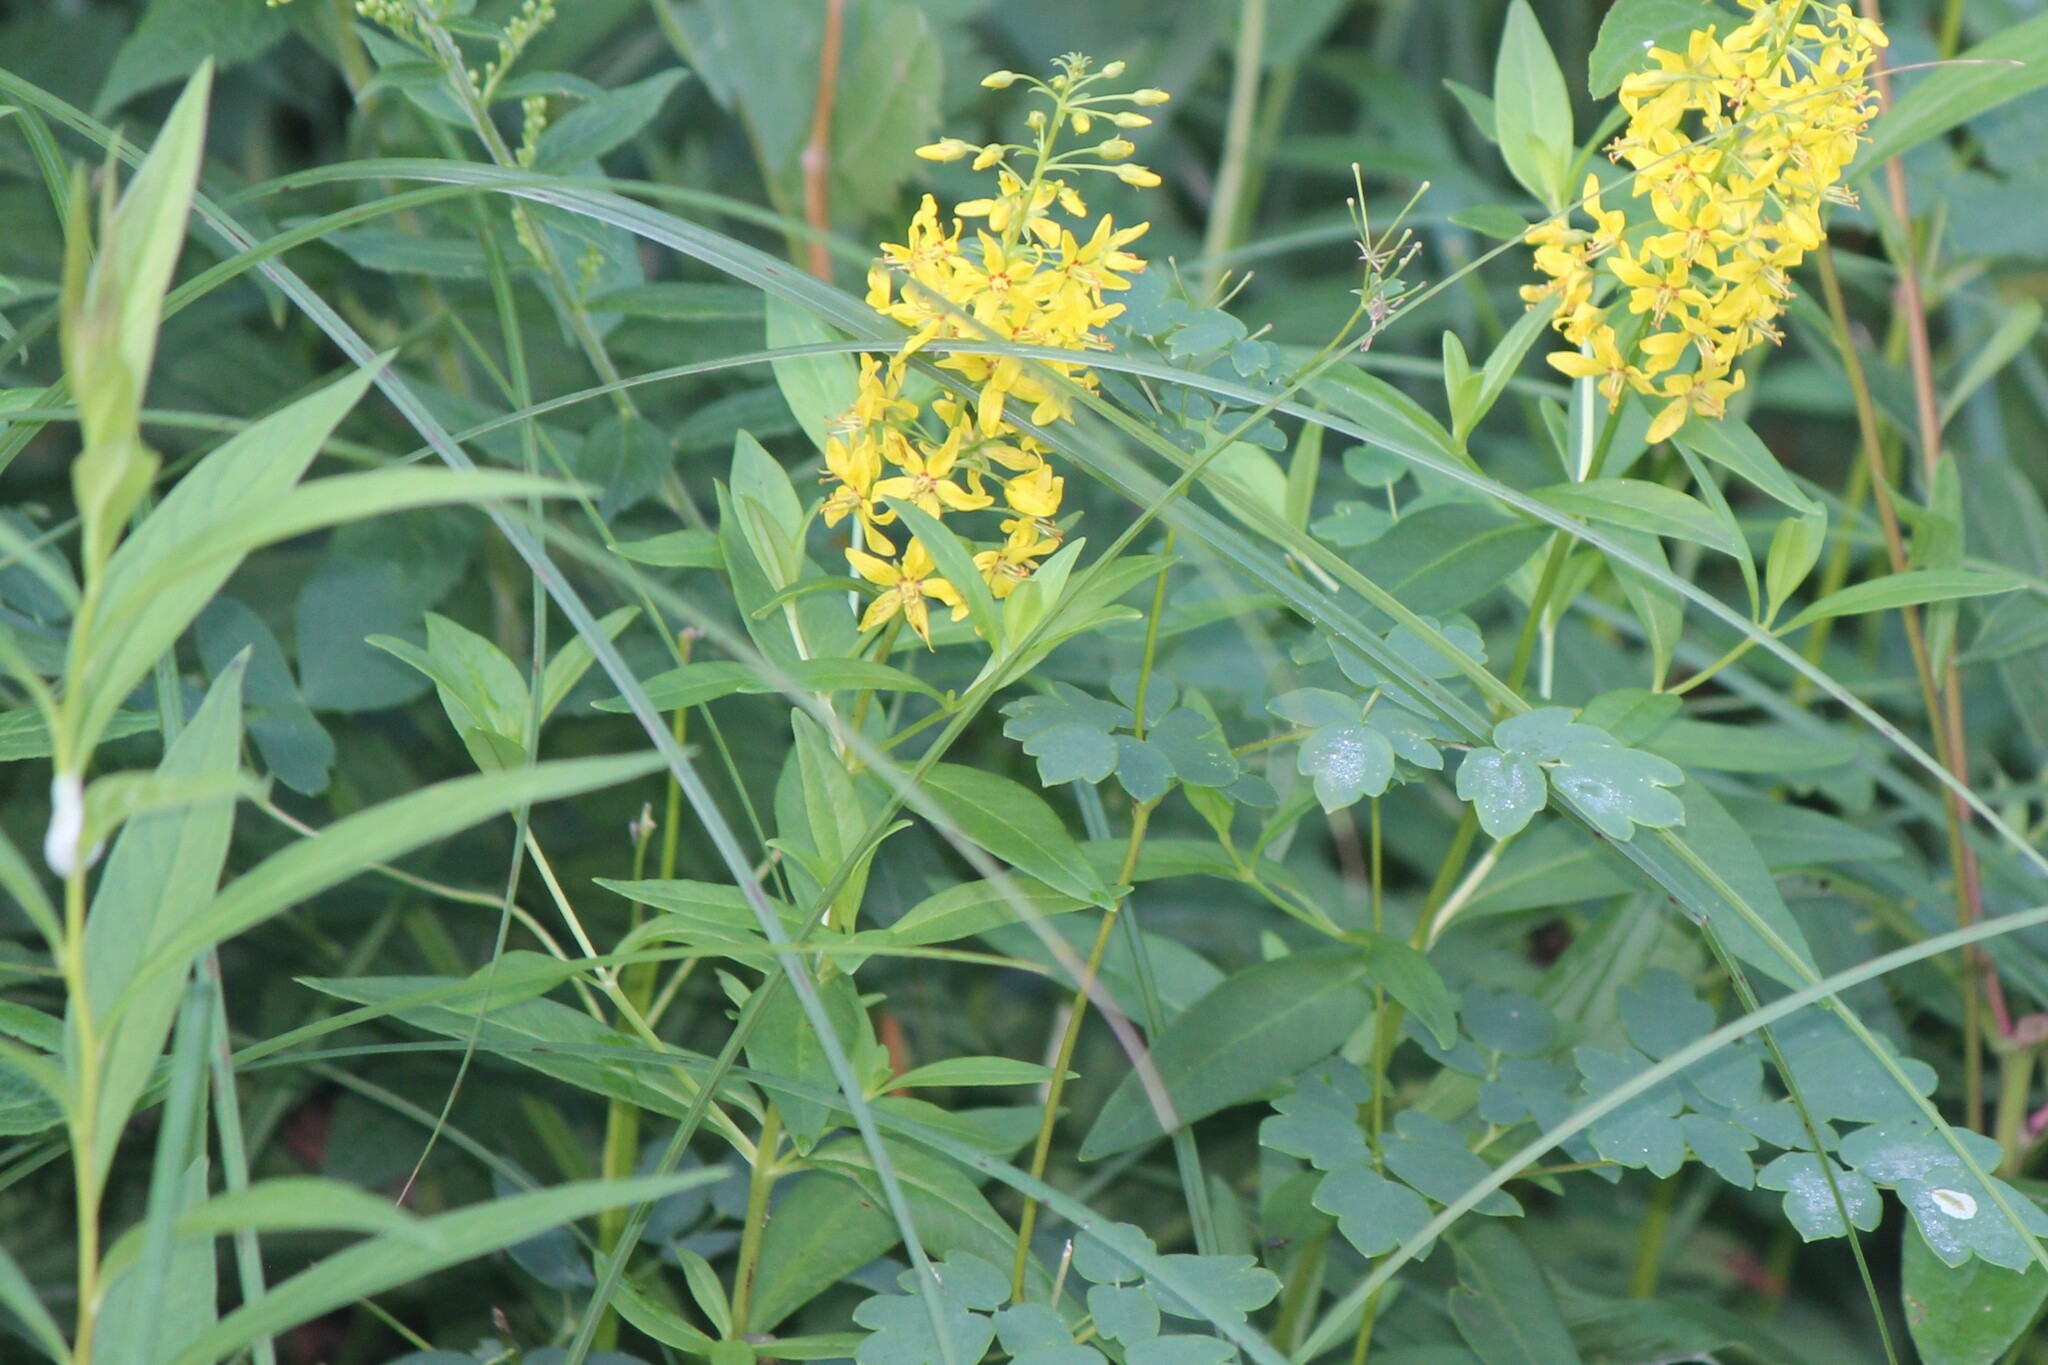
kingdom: Plantae
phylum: Tracheophyta
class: Magnoliopsida
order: Ericales
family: Primulaceae
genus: Lysimachia
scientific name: Lysimachia terrestris
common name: Lake loosestrife
